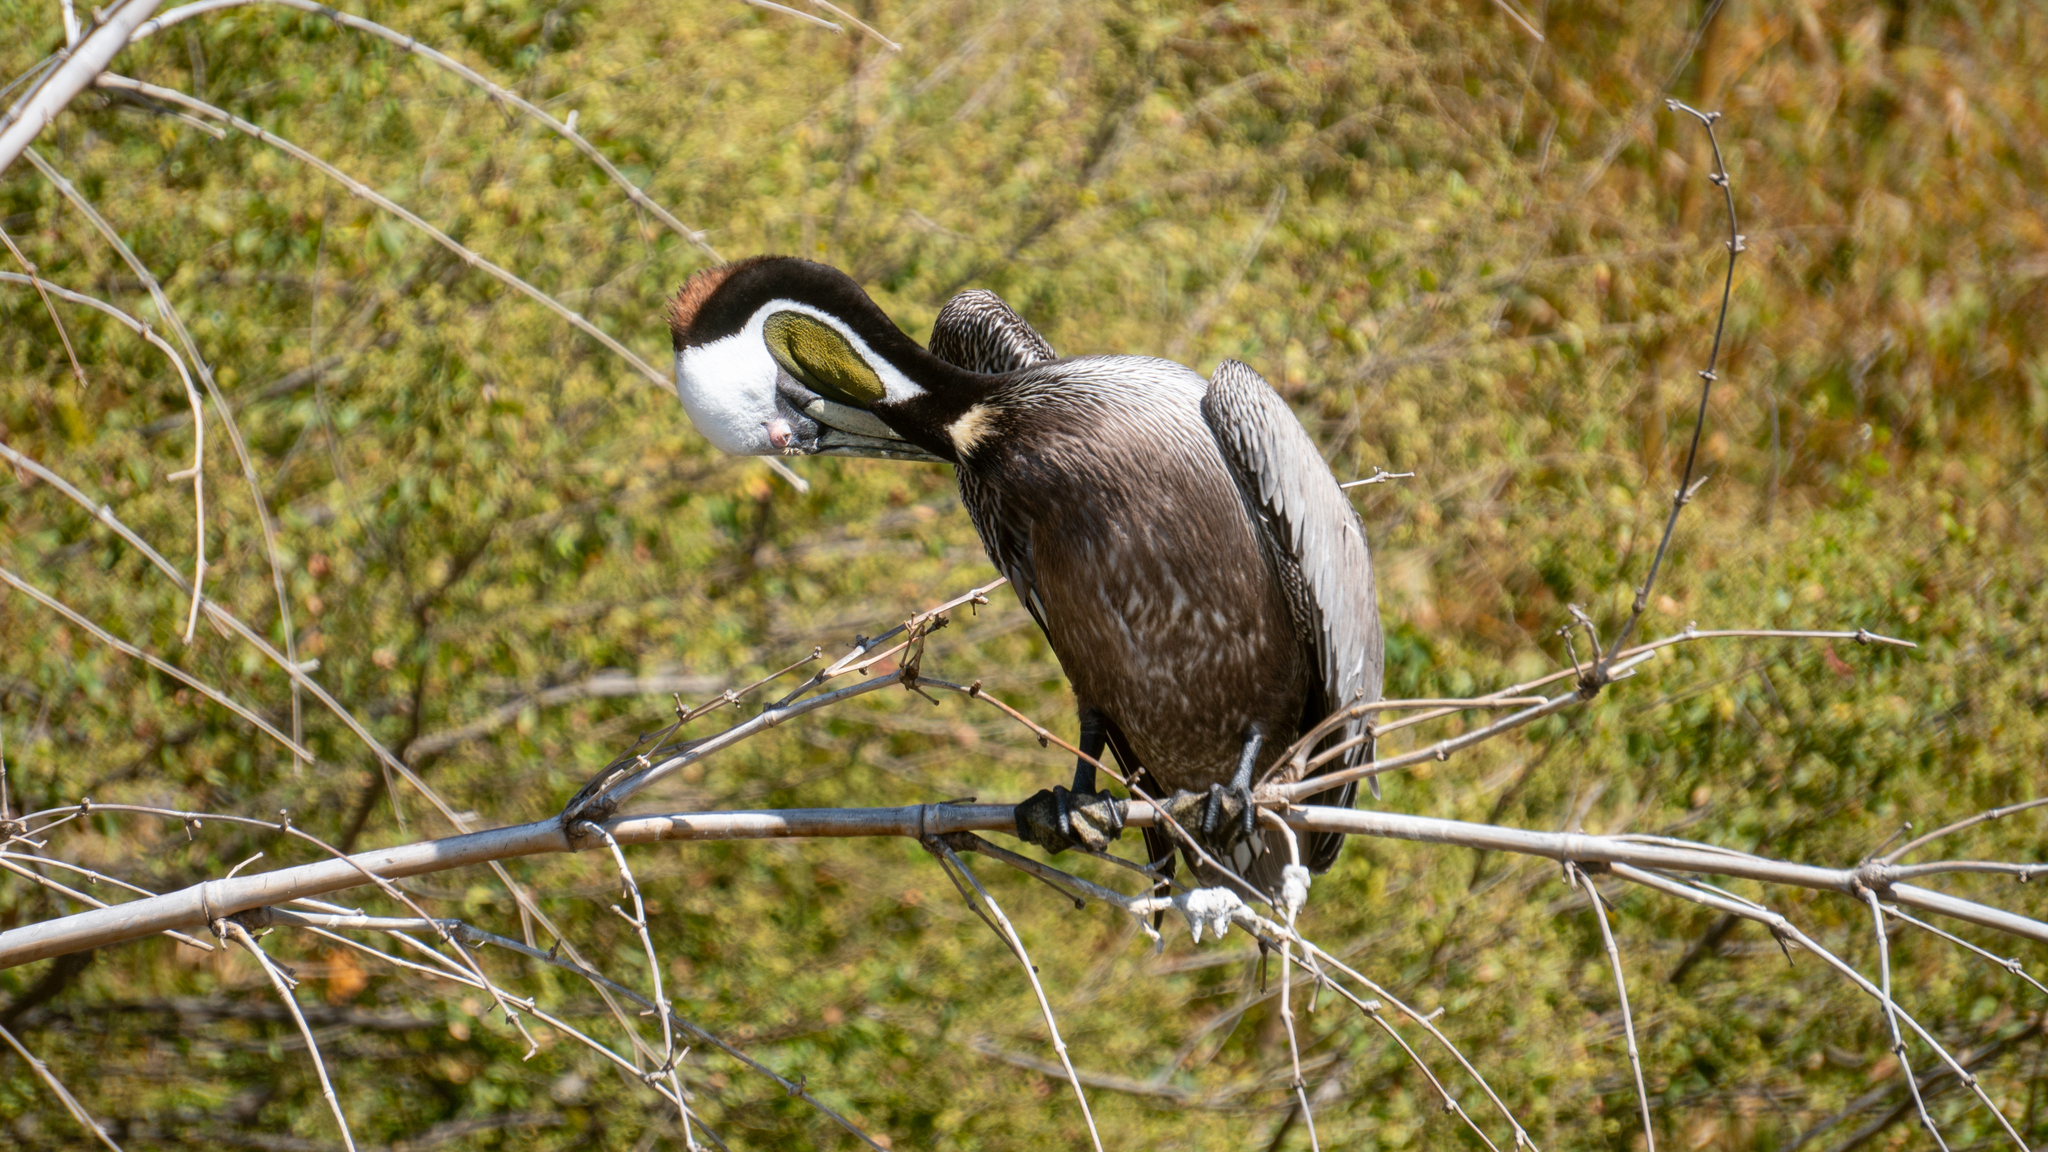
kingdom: Animalia
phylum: Chordata
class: Aves
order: Pelecaniformes
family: Pelecanidae
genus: Pelecanus
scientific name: Pelecanus occidentalis
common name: Brown pelican
